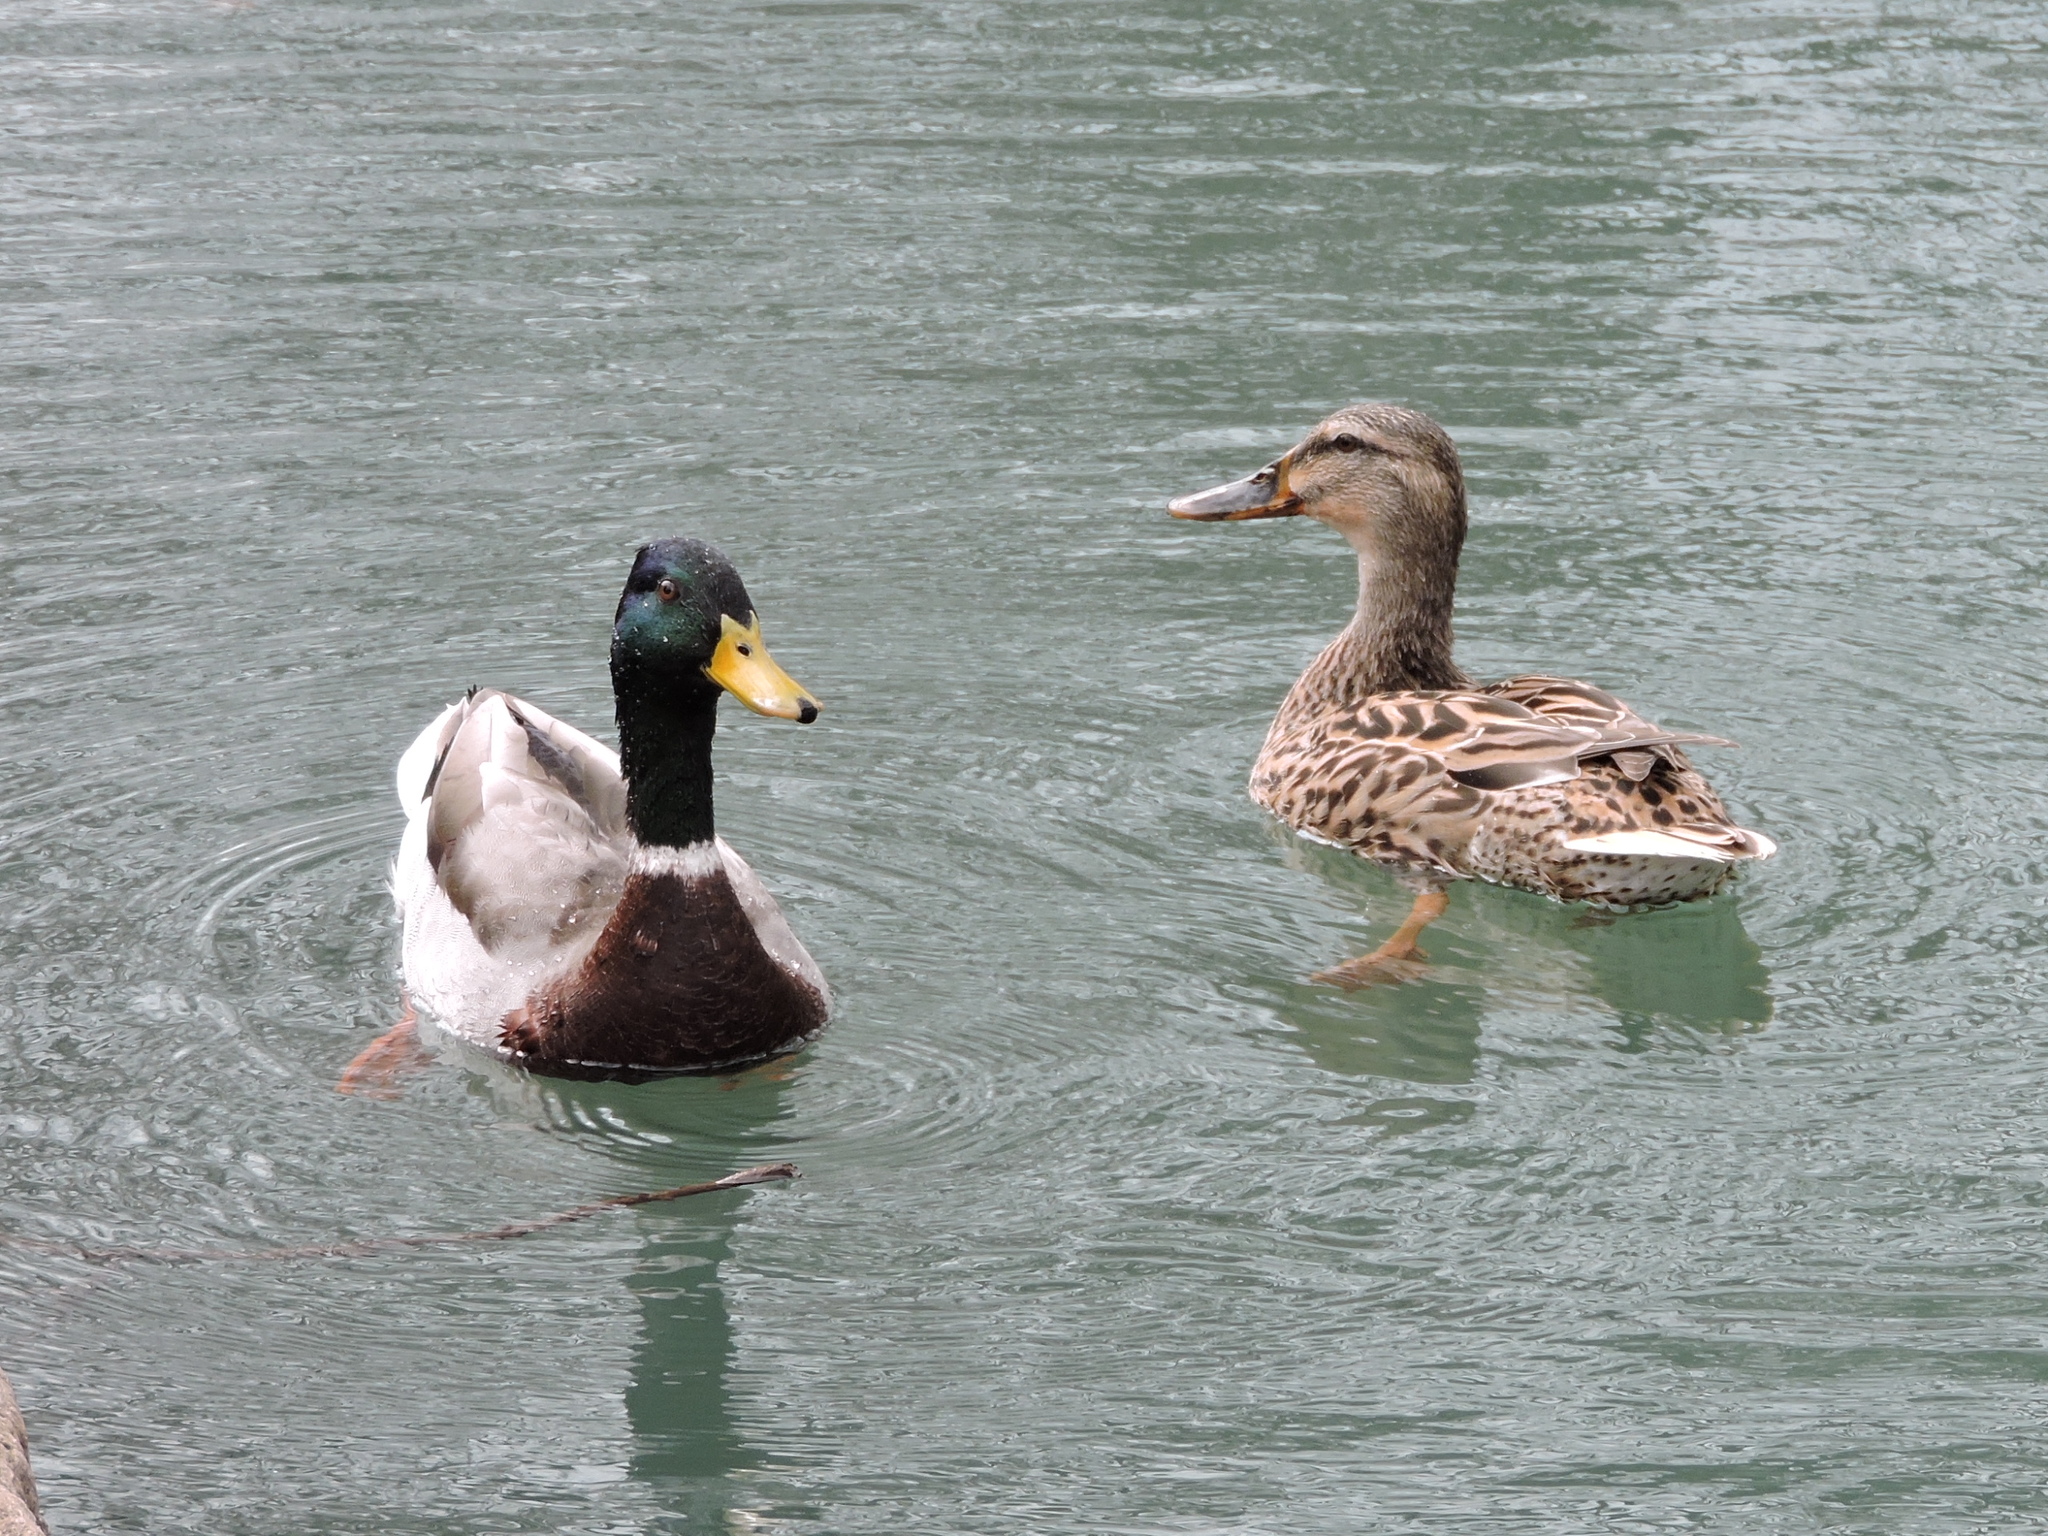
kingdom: Animalia
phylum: Chordata
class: Aves
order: Anseriformes
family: Anatidae
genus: Anas
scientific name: Anas platyrhynchos
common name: Mallard
